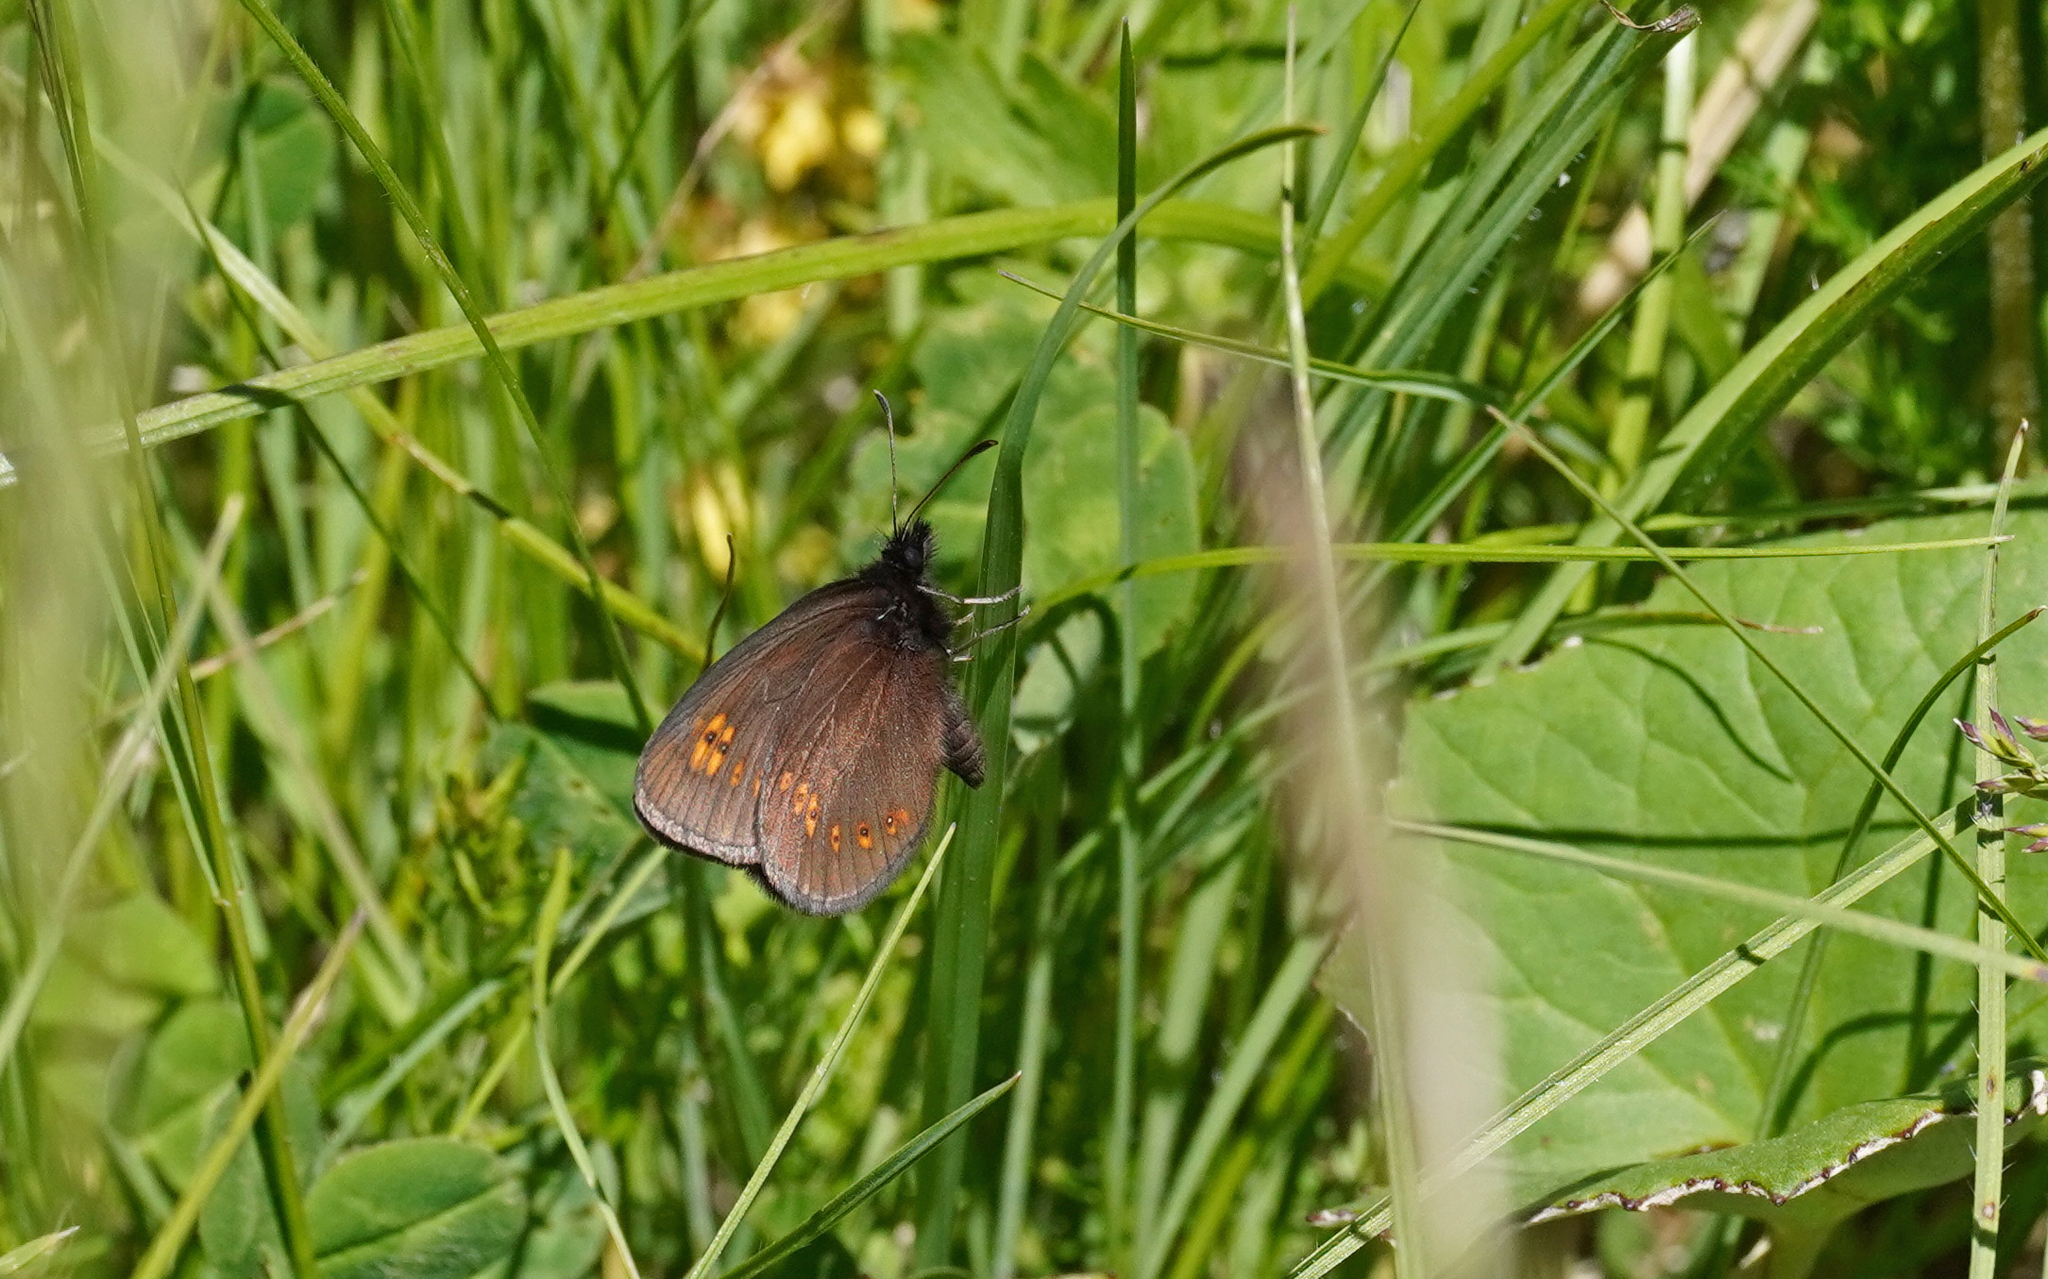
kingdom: Animalia
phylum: Arthropoda
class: Insecta
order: Lepidoptera
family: Nymphalidae
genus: Erebia
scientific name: Erebia alberganus
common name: Almond-eyed ringlet
